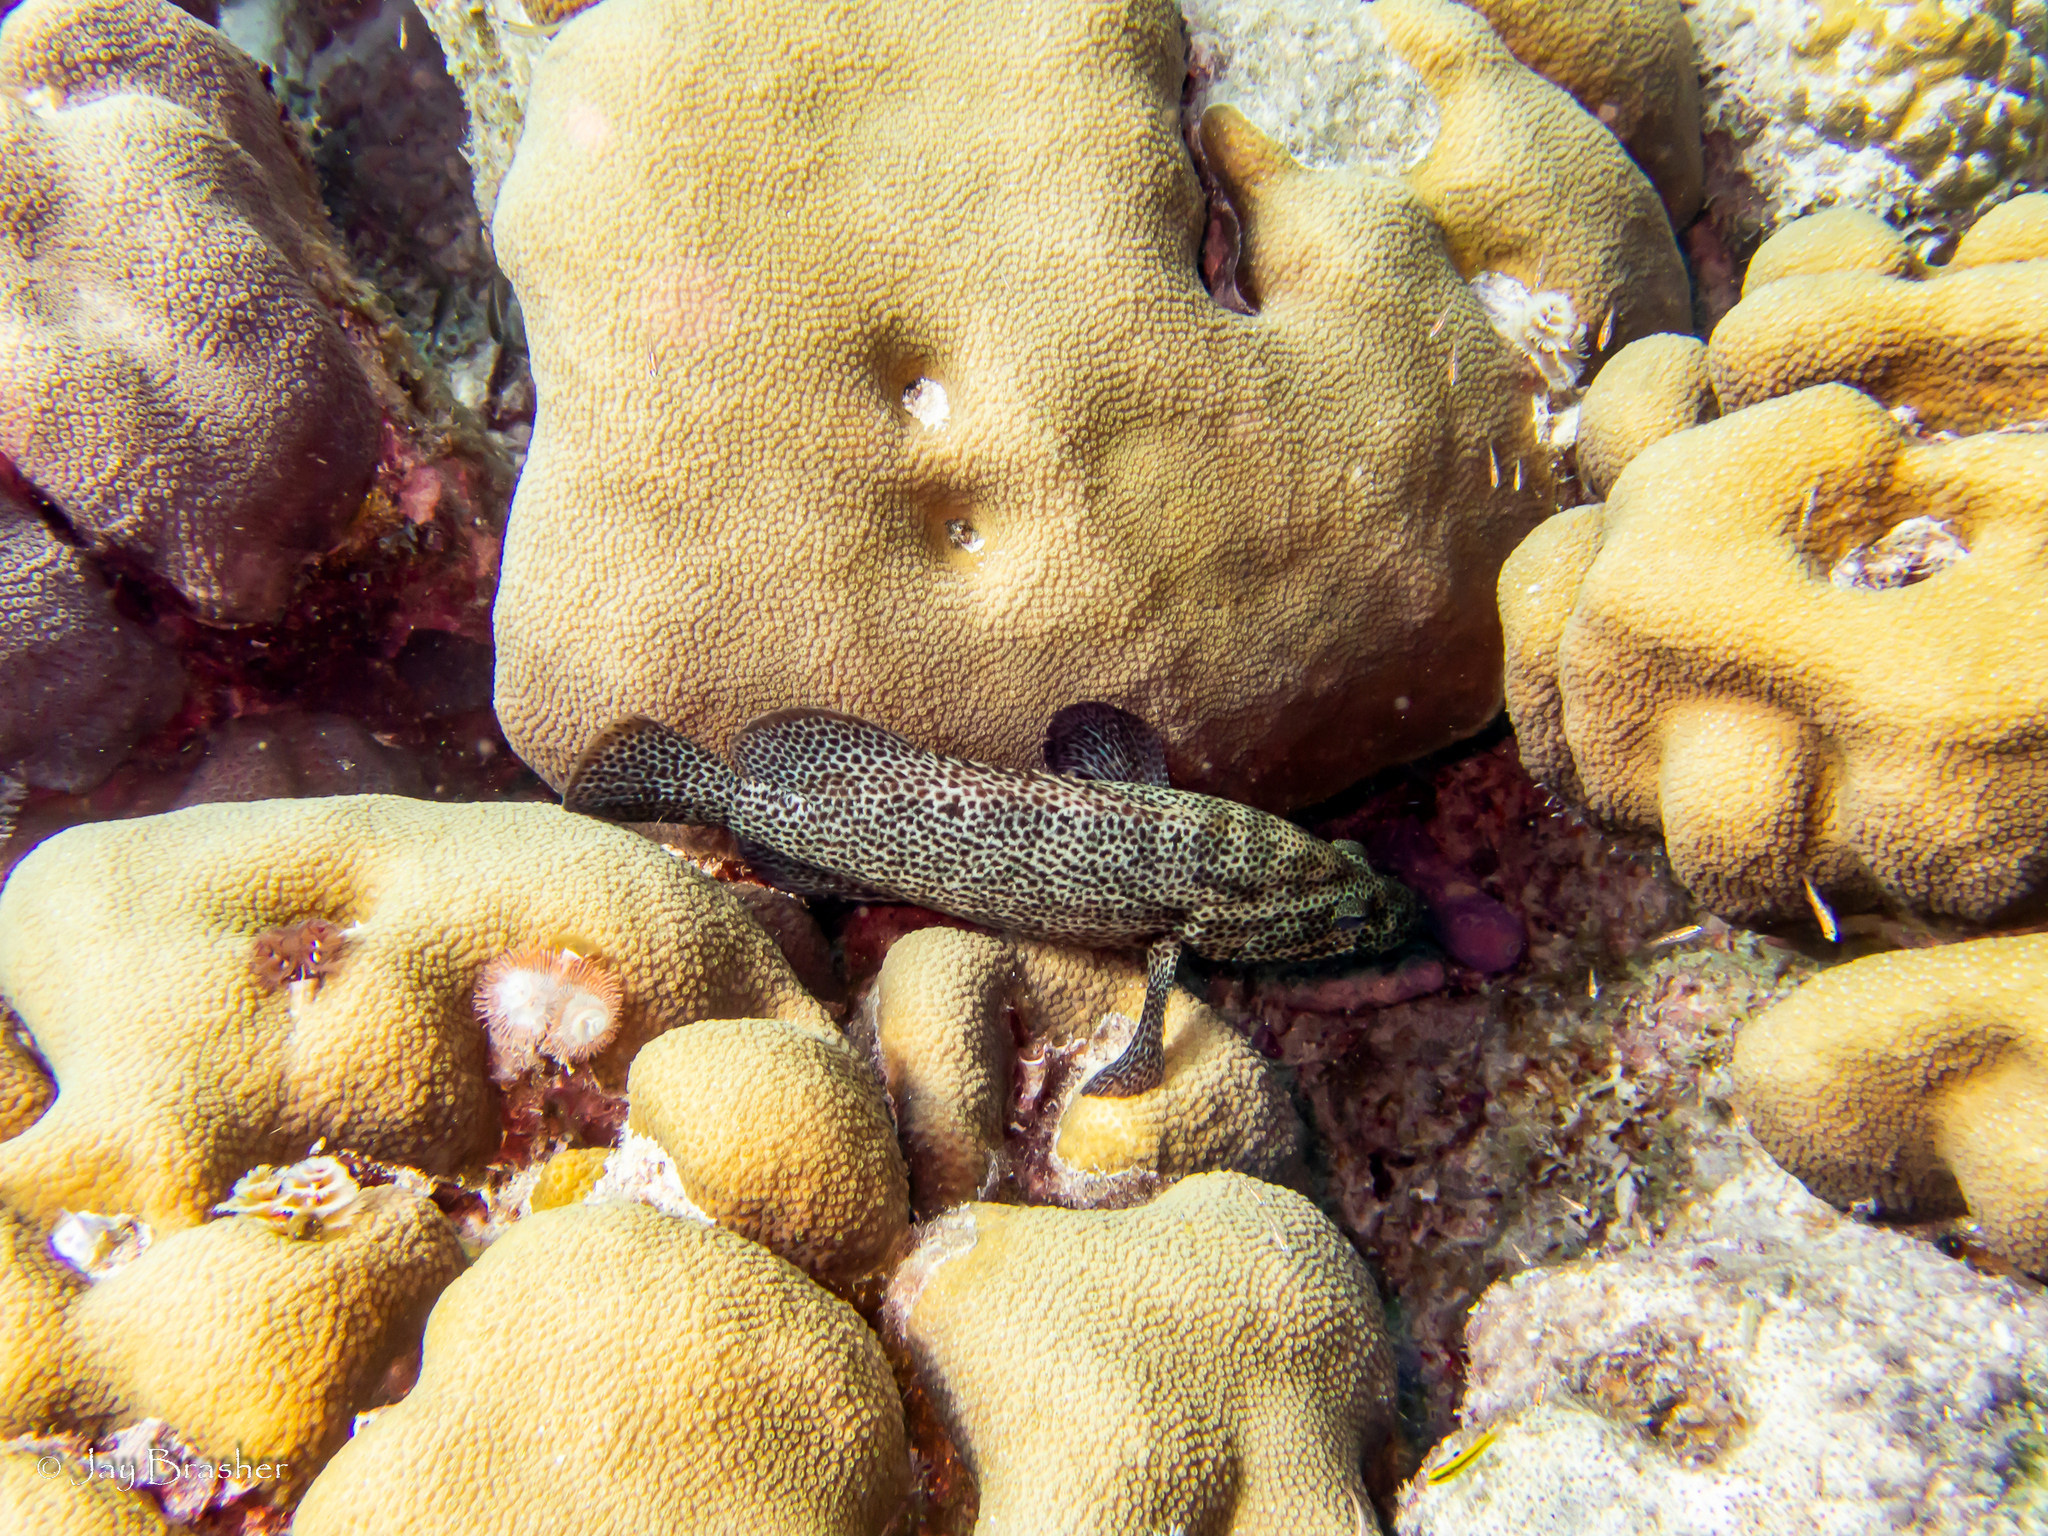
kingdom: Animalia
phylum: Cnidaria
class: Anthozoa
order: Scleractinia
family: Merulinidae
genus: Orbicella
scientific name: Orbicella annularis
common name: Boulder star coral
